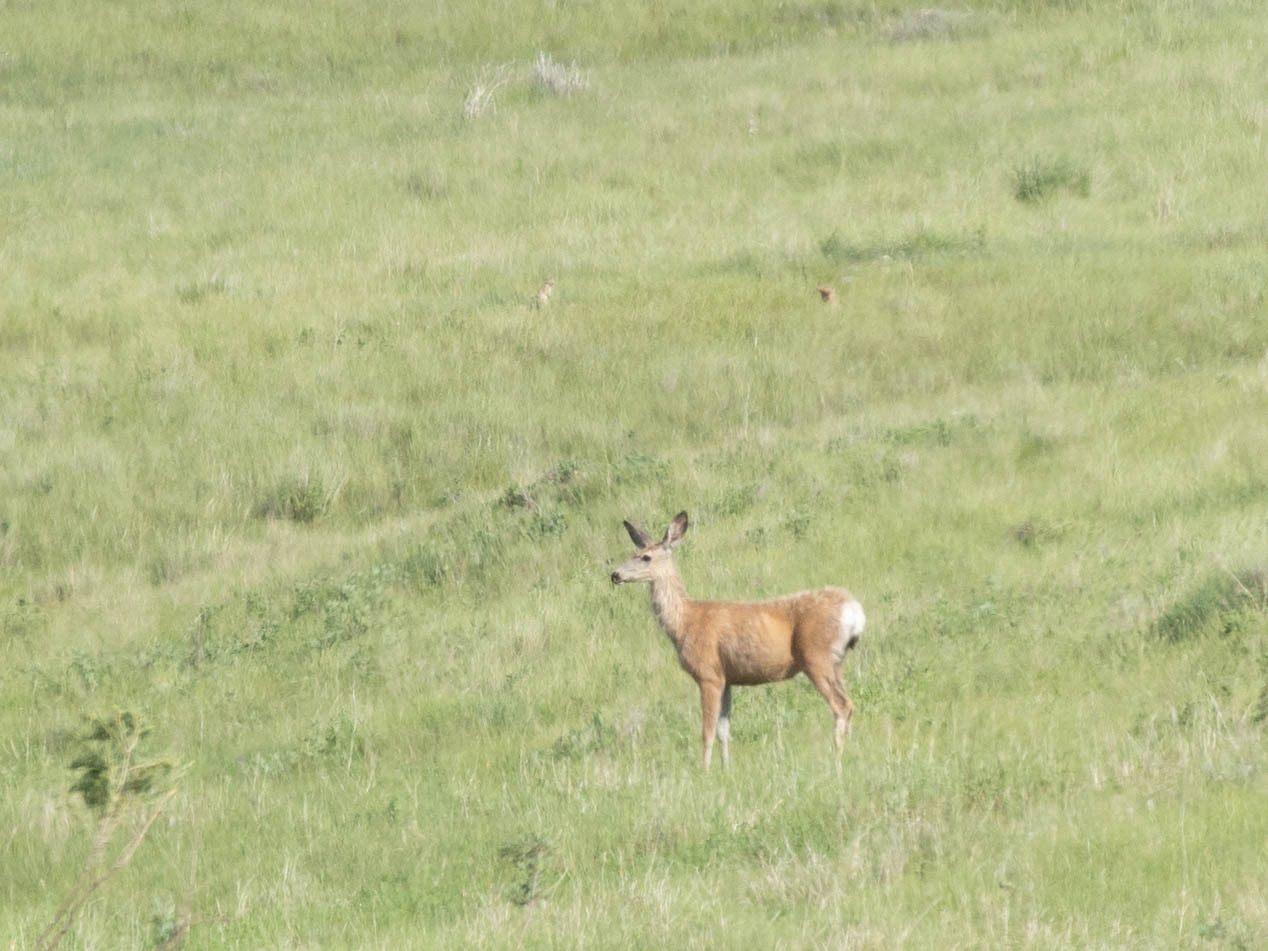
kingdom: Animalia
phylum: Chordata
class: Mammalia
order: Artiodactyla
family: Cervidae
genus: Odocoileus
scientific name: Odocoileus hemionus
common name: Mule deer
